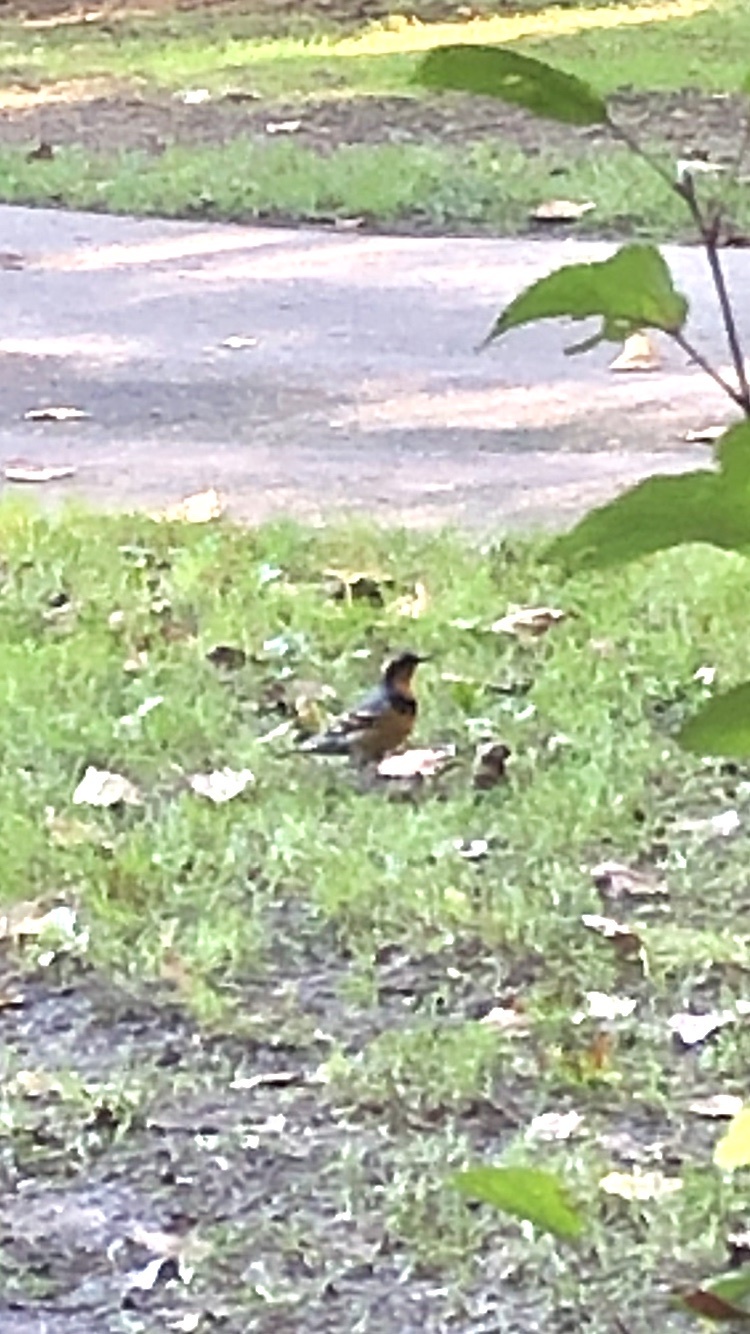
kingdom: Animalia
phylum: Chordata
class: Aves
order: Passeriformes
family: Turdidae
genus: Ixoreus
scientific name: Ixoreus naevius
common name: Varied thrush
